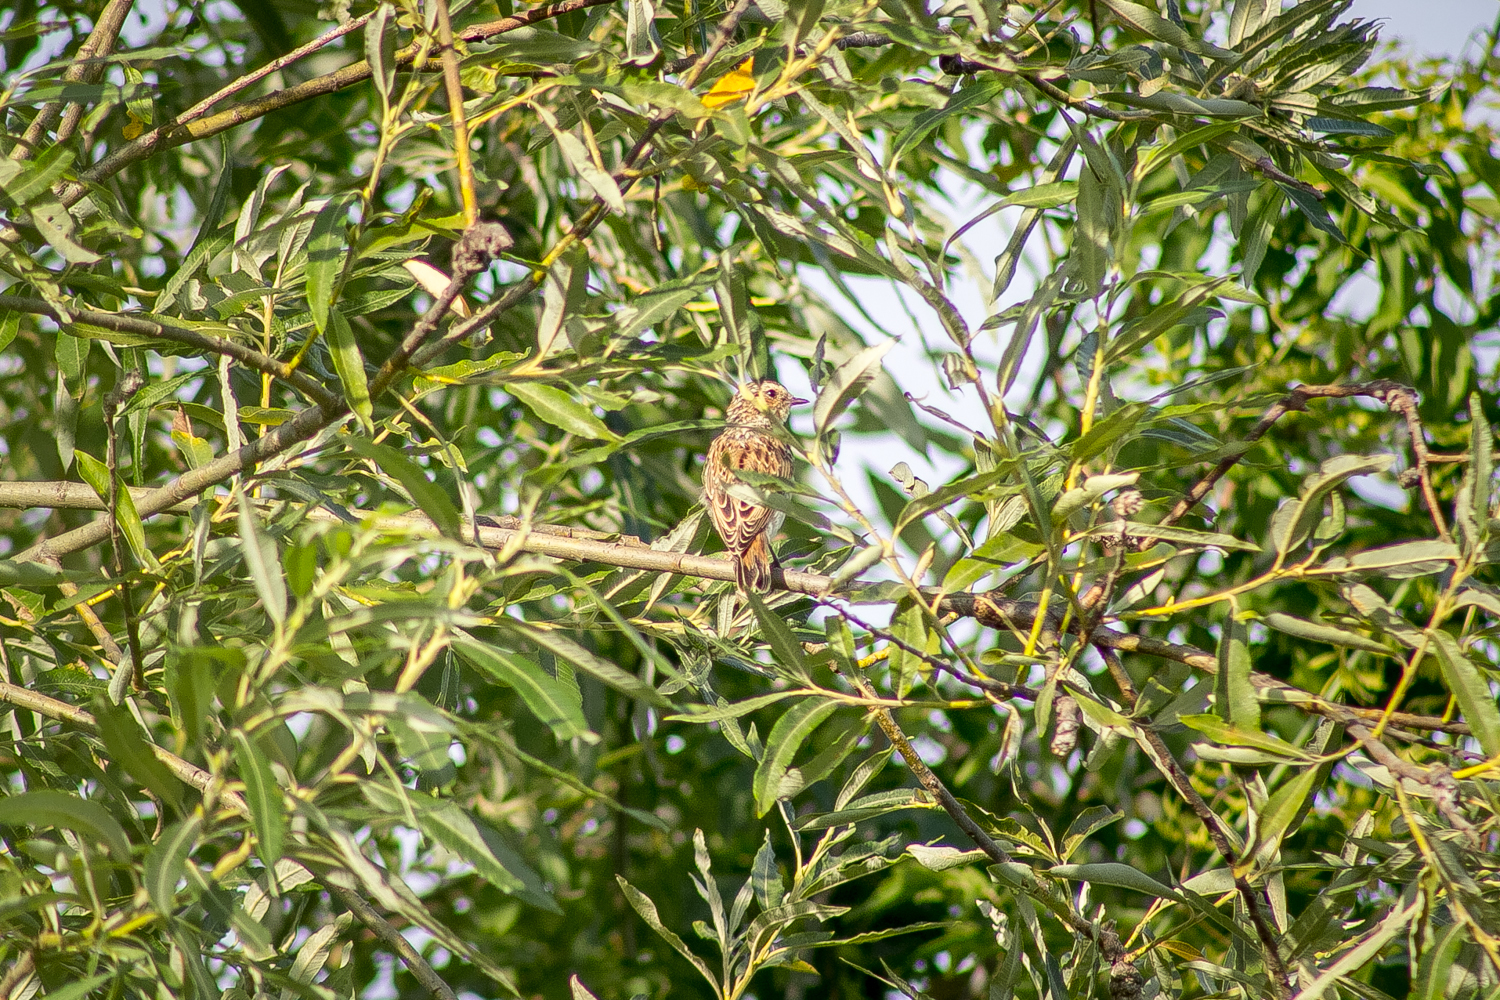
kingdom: Animalia
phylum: Chordata
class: Aves
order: Passeriformes
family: Muscicapidae
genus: Saxicola
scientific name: Saxicola rubetra
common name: Whinchat
